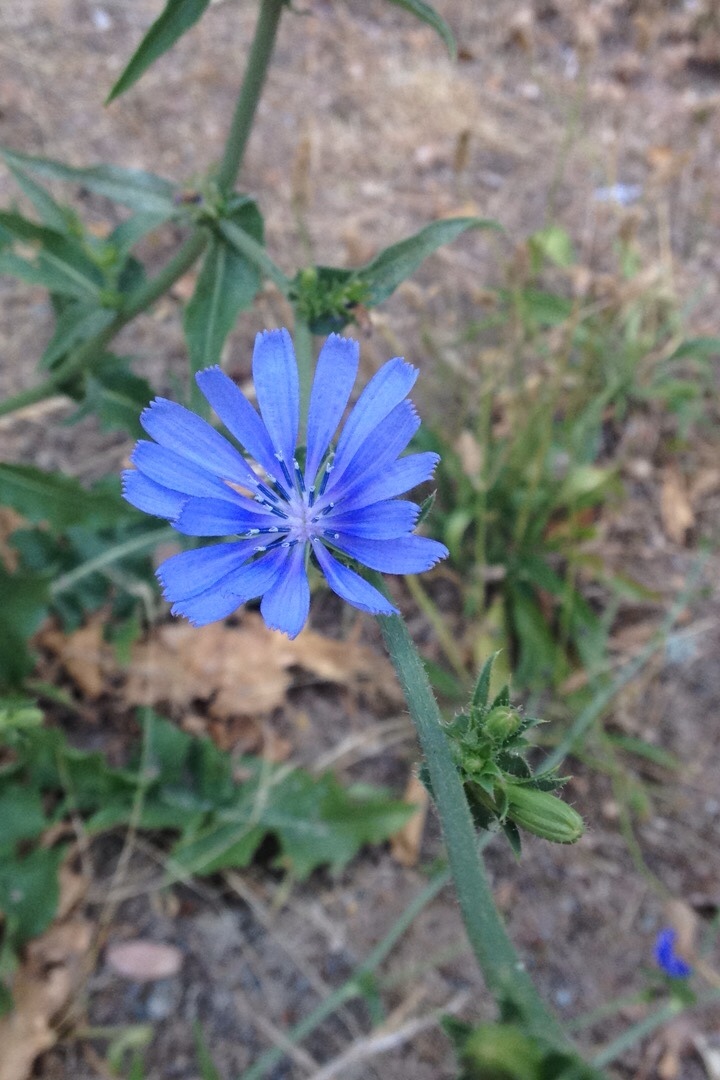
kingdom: Plantae
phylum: Tracheophyta
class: Magnoliopsida
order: Asterales
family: Asteraceae
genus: Cichorium
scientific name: Cichorium intybus
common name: Chicory
